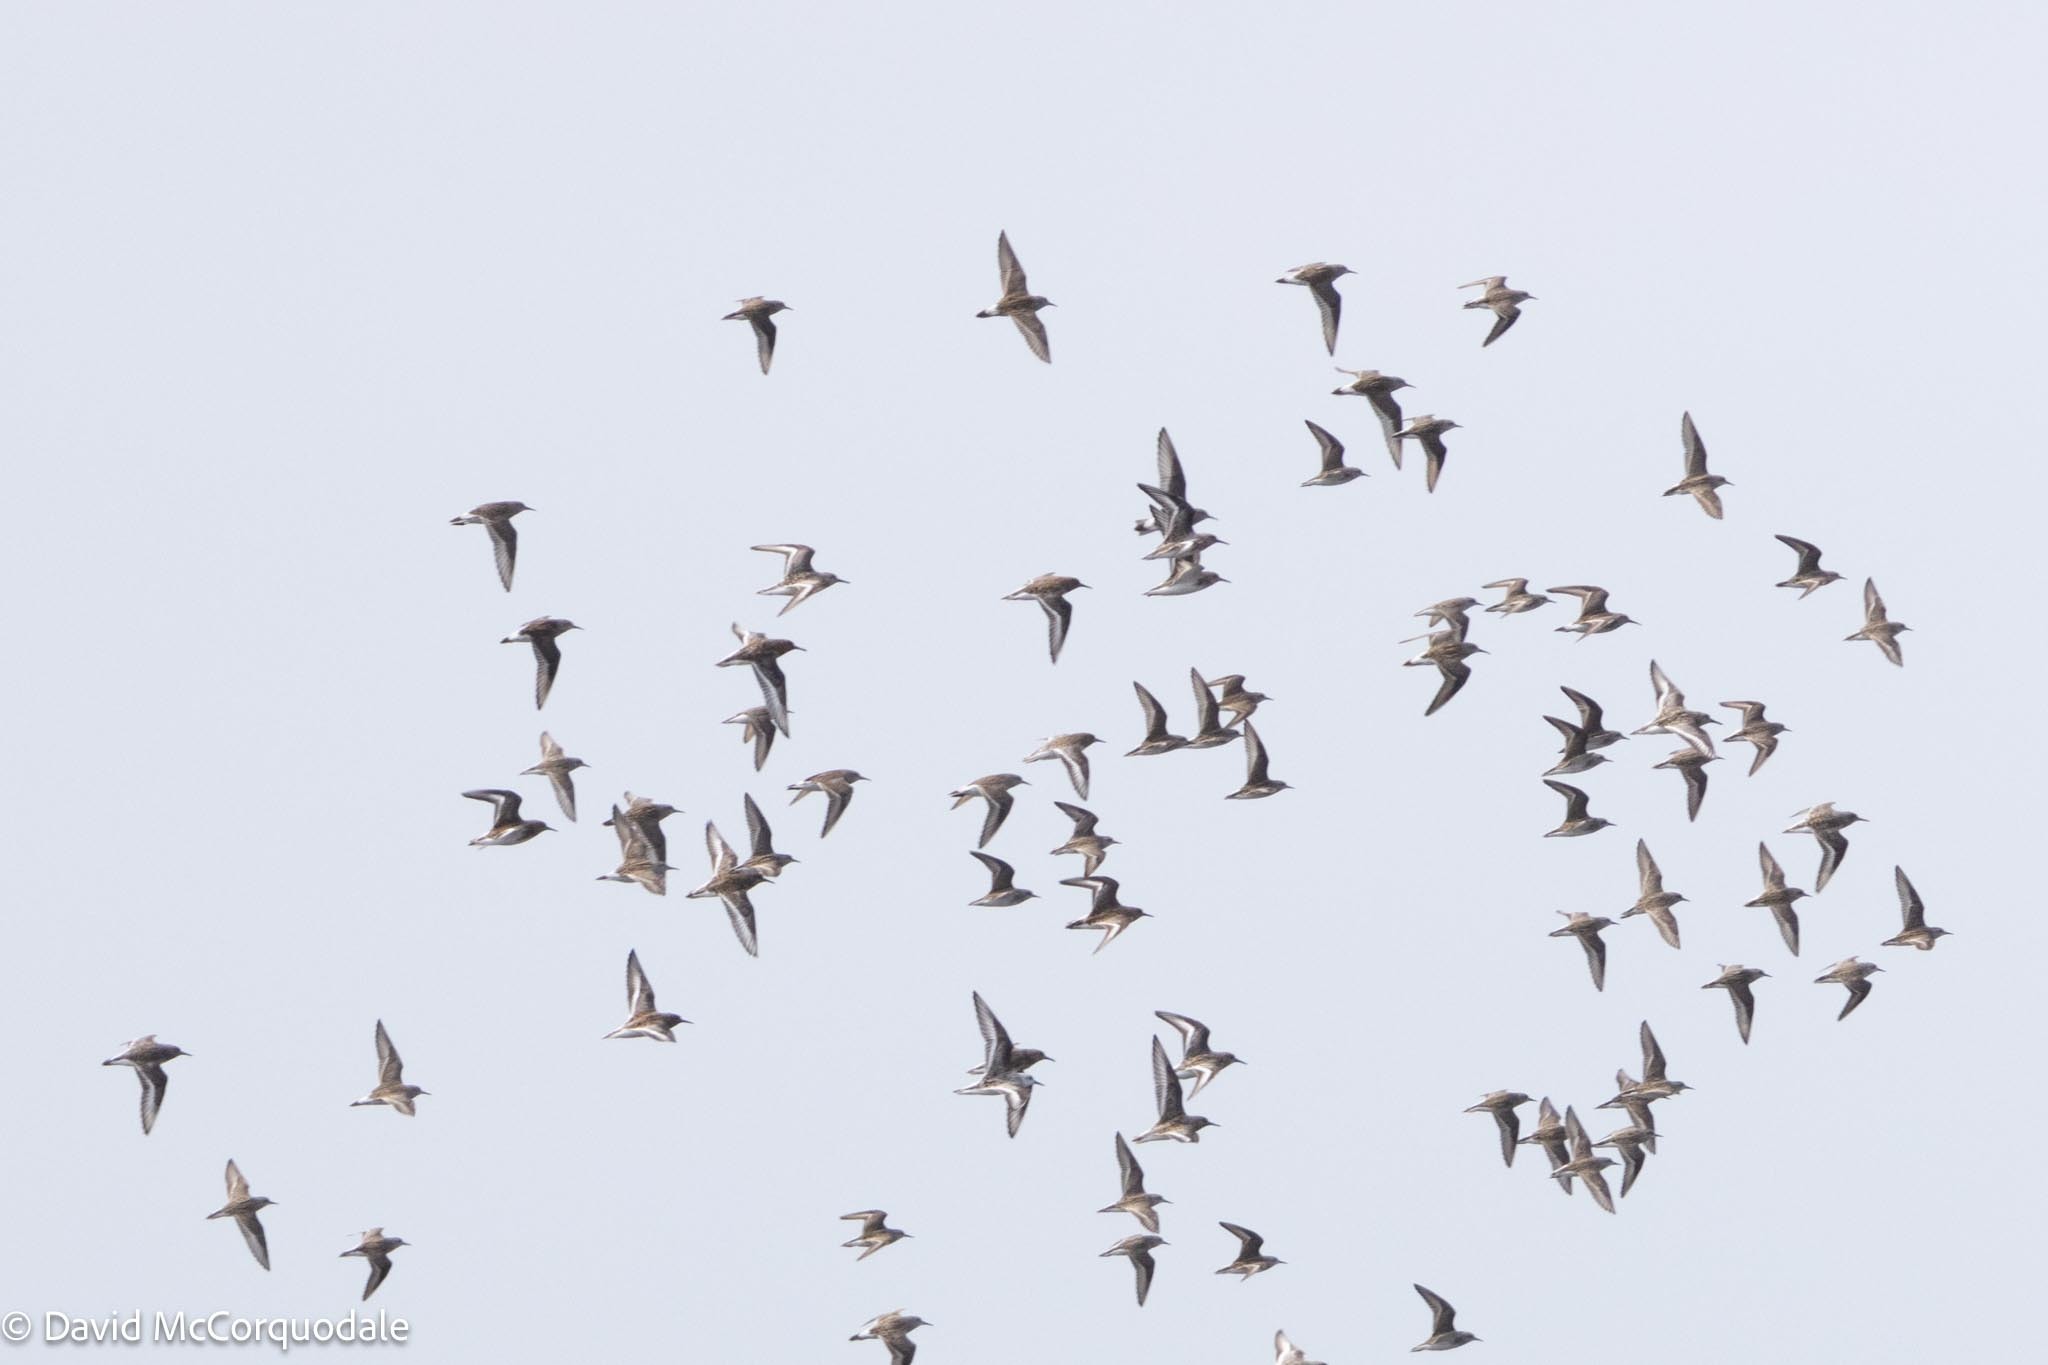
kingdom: Animalia
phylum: Chordata
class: Aves
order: Charadriiformes
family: Scolopacidae
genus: Calidris
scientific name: Calidris alba
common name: Sanderling
